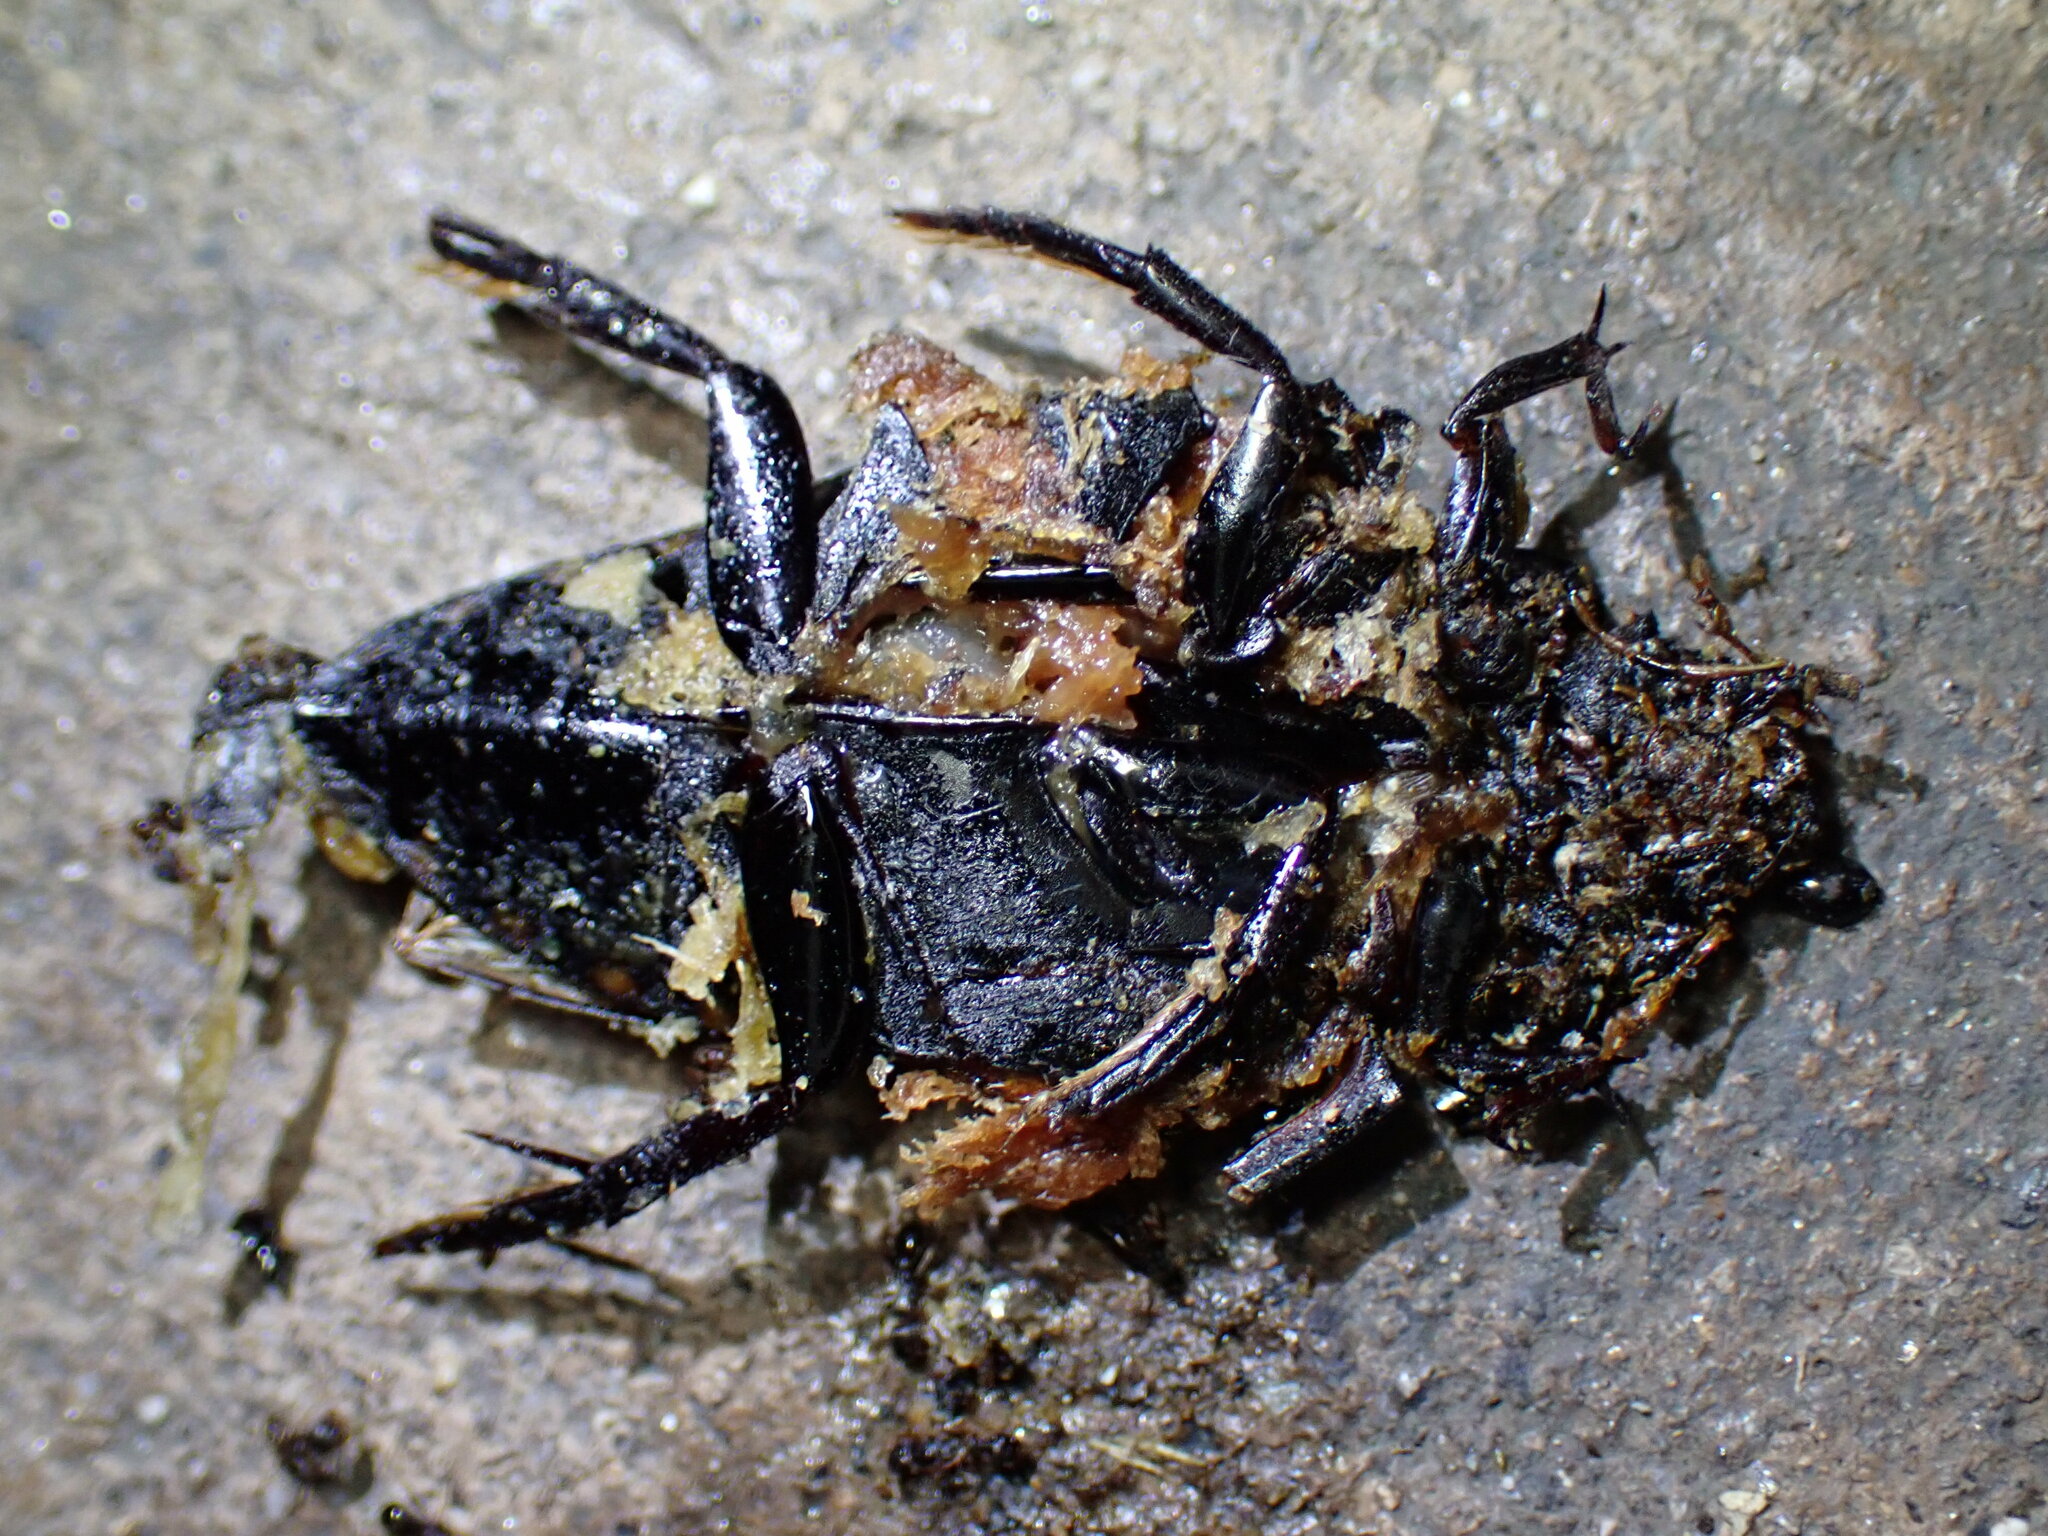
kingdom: Animalia
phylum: Arthropoda
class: Insecta
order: Coleoptera
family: Hydrophilidae
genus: Hydrophilus
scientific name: Hydrophilus triangularis
